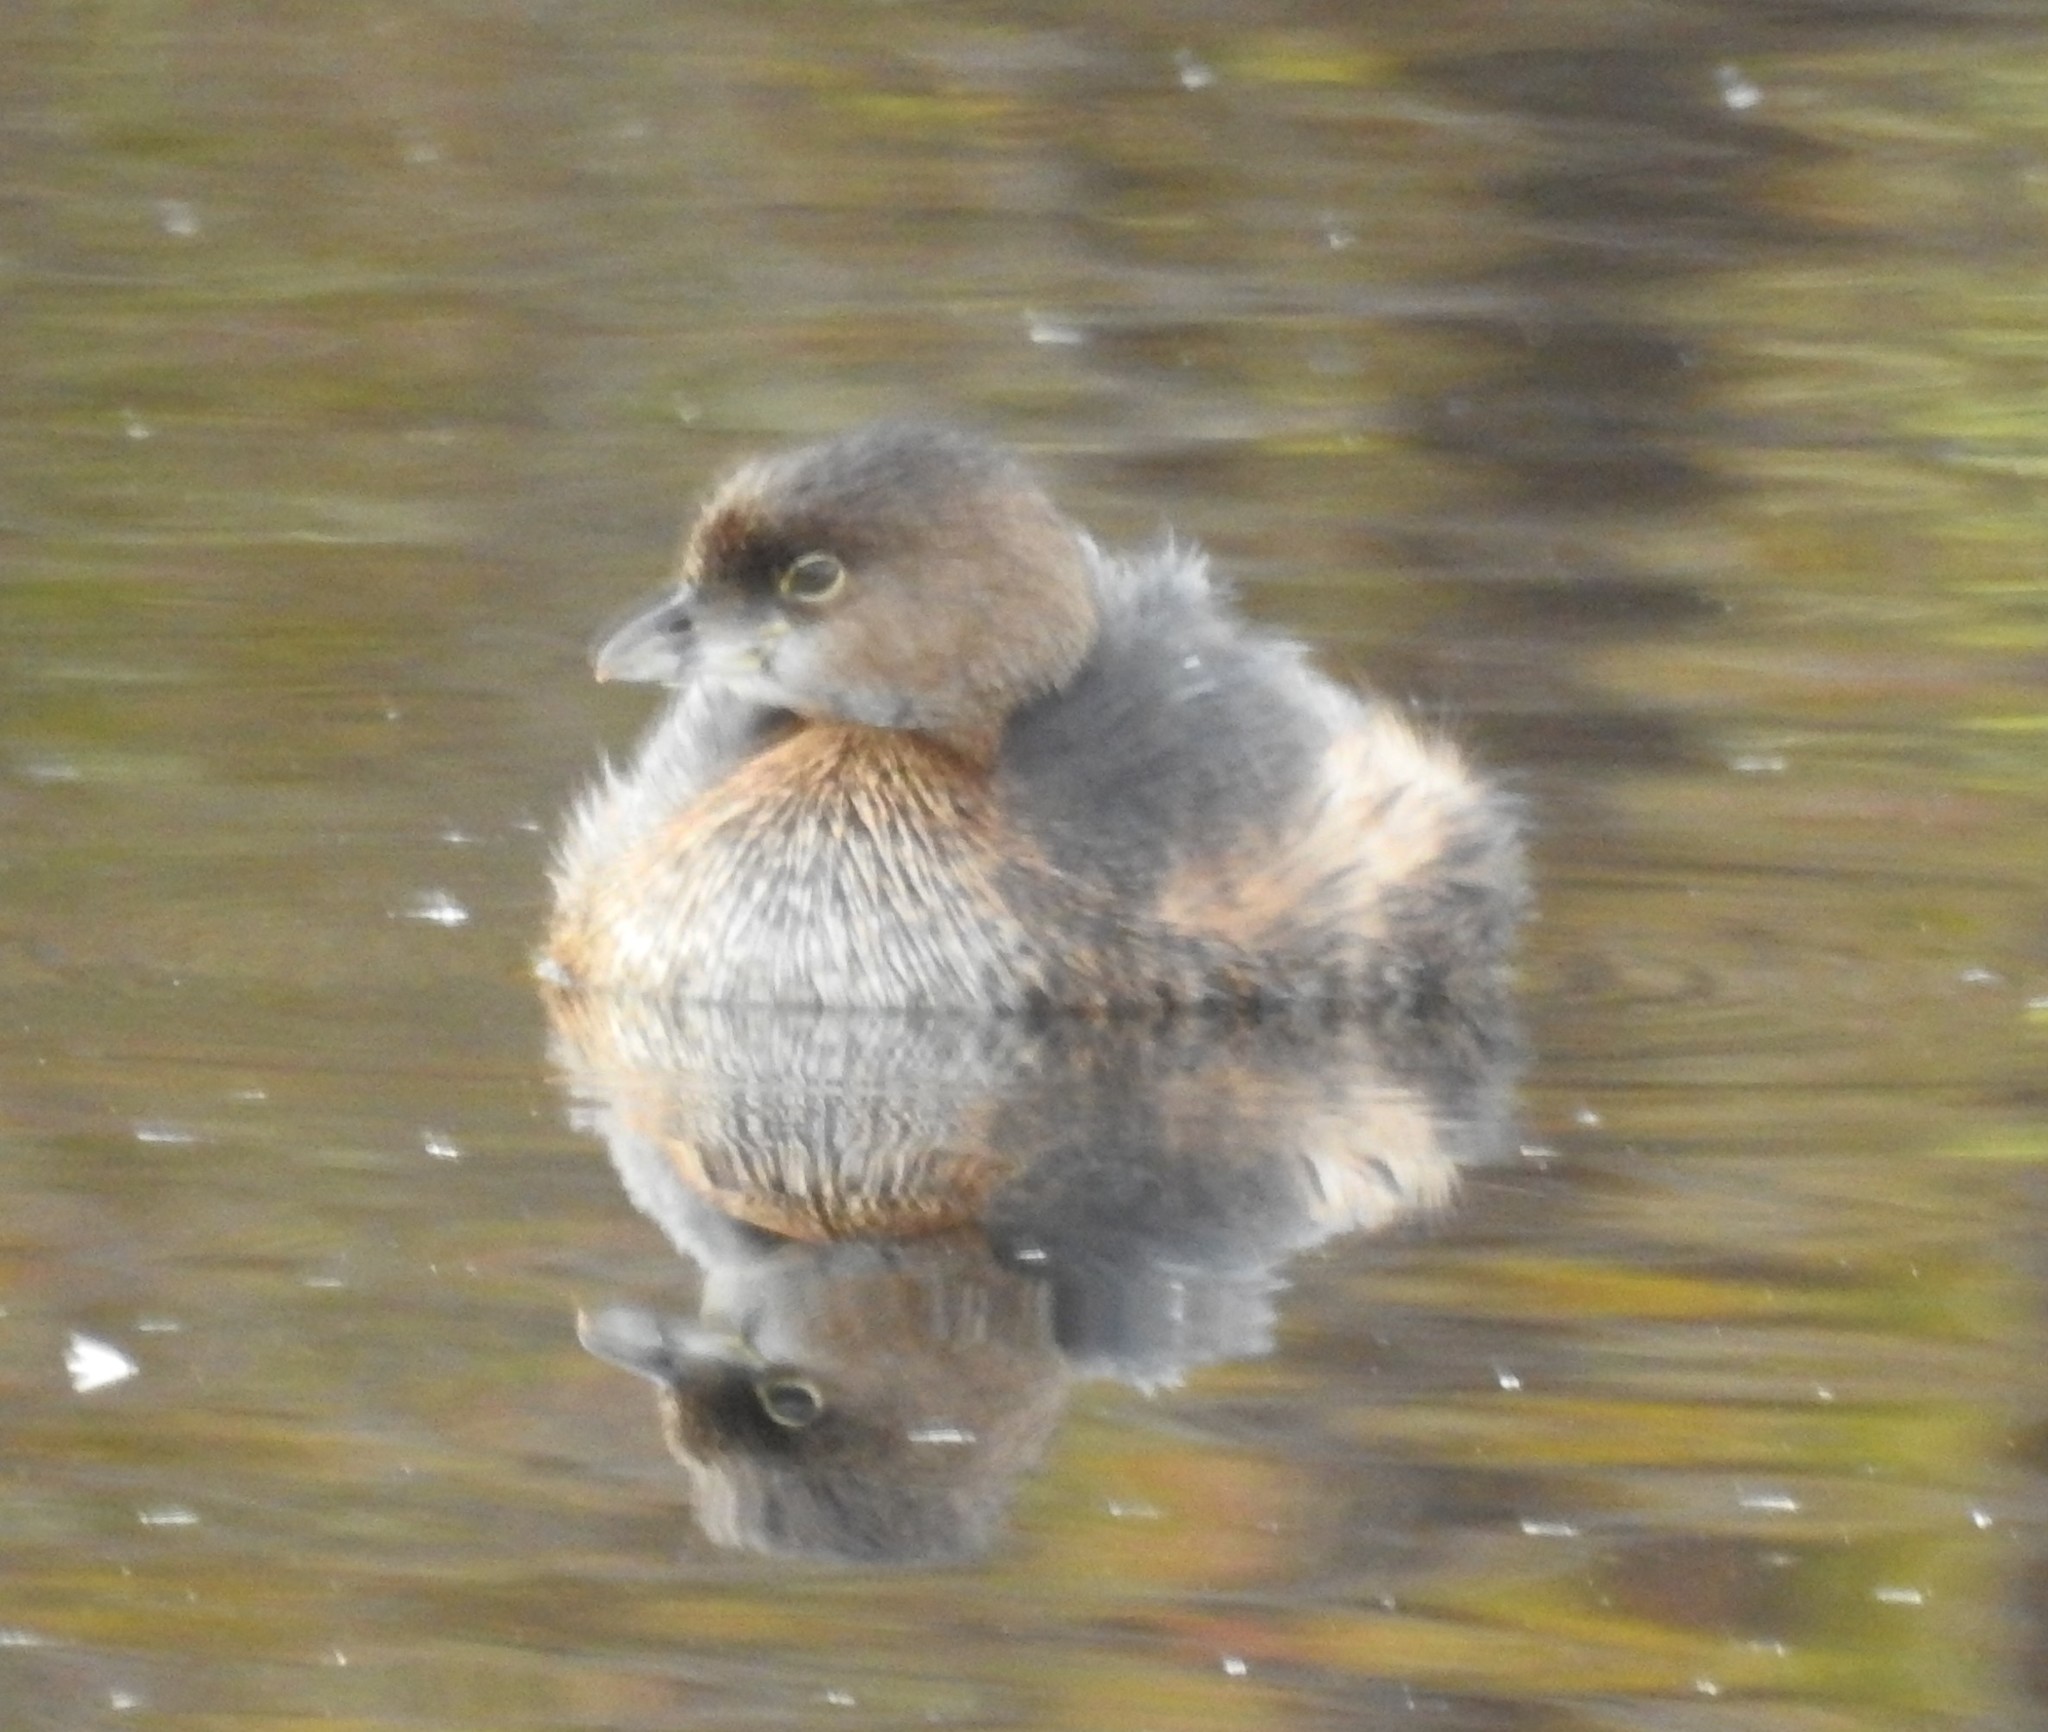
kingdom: Animalia
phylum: Chordata
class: Aves
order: Podicipediformes
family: Podicipedidae
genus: Podilymbus
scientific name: Podilymbus podiceps
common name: Pied-billed grebe
